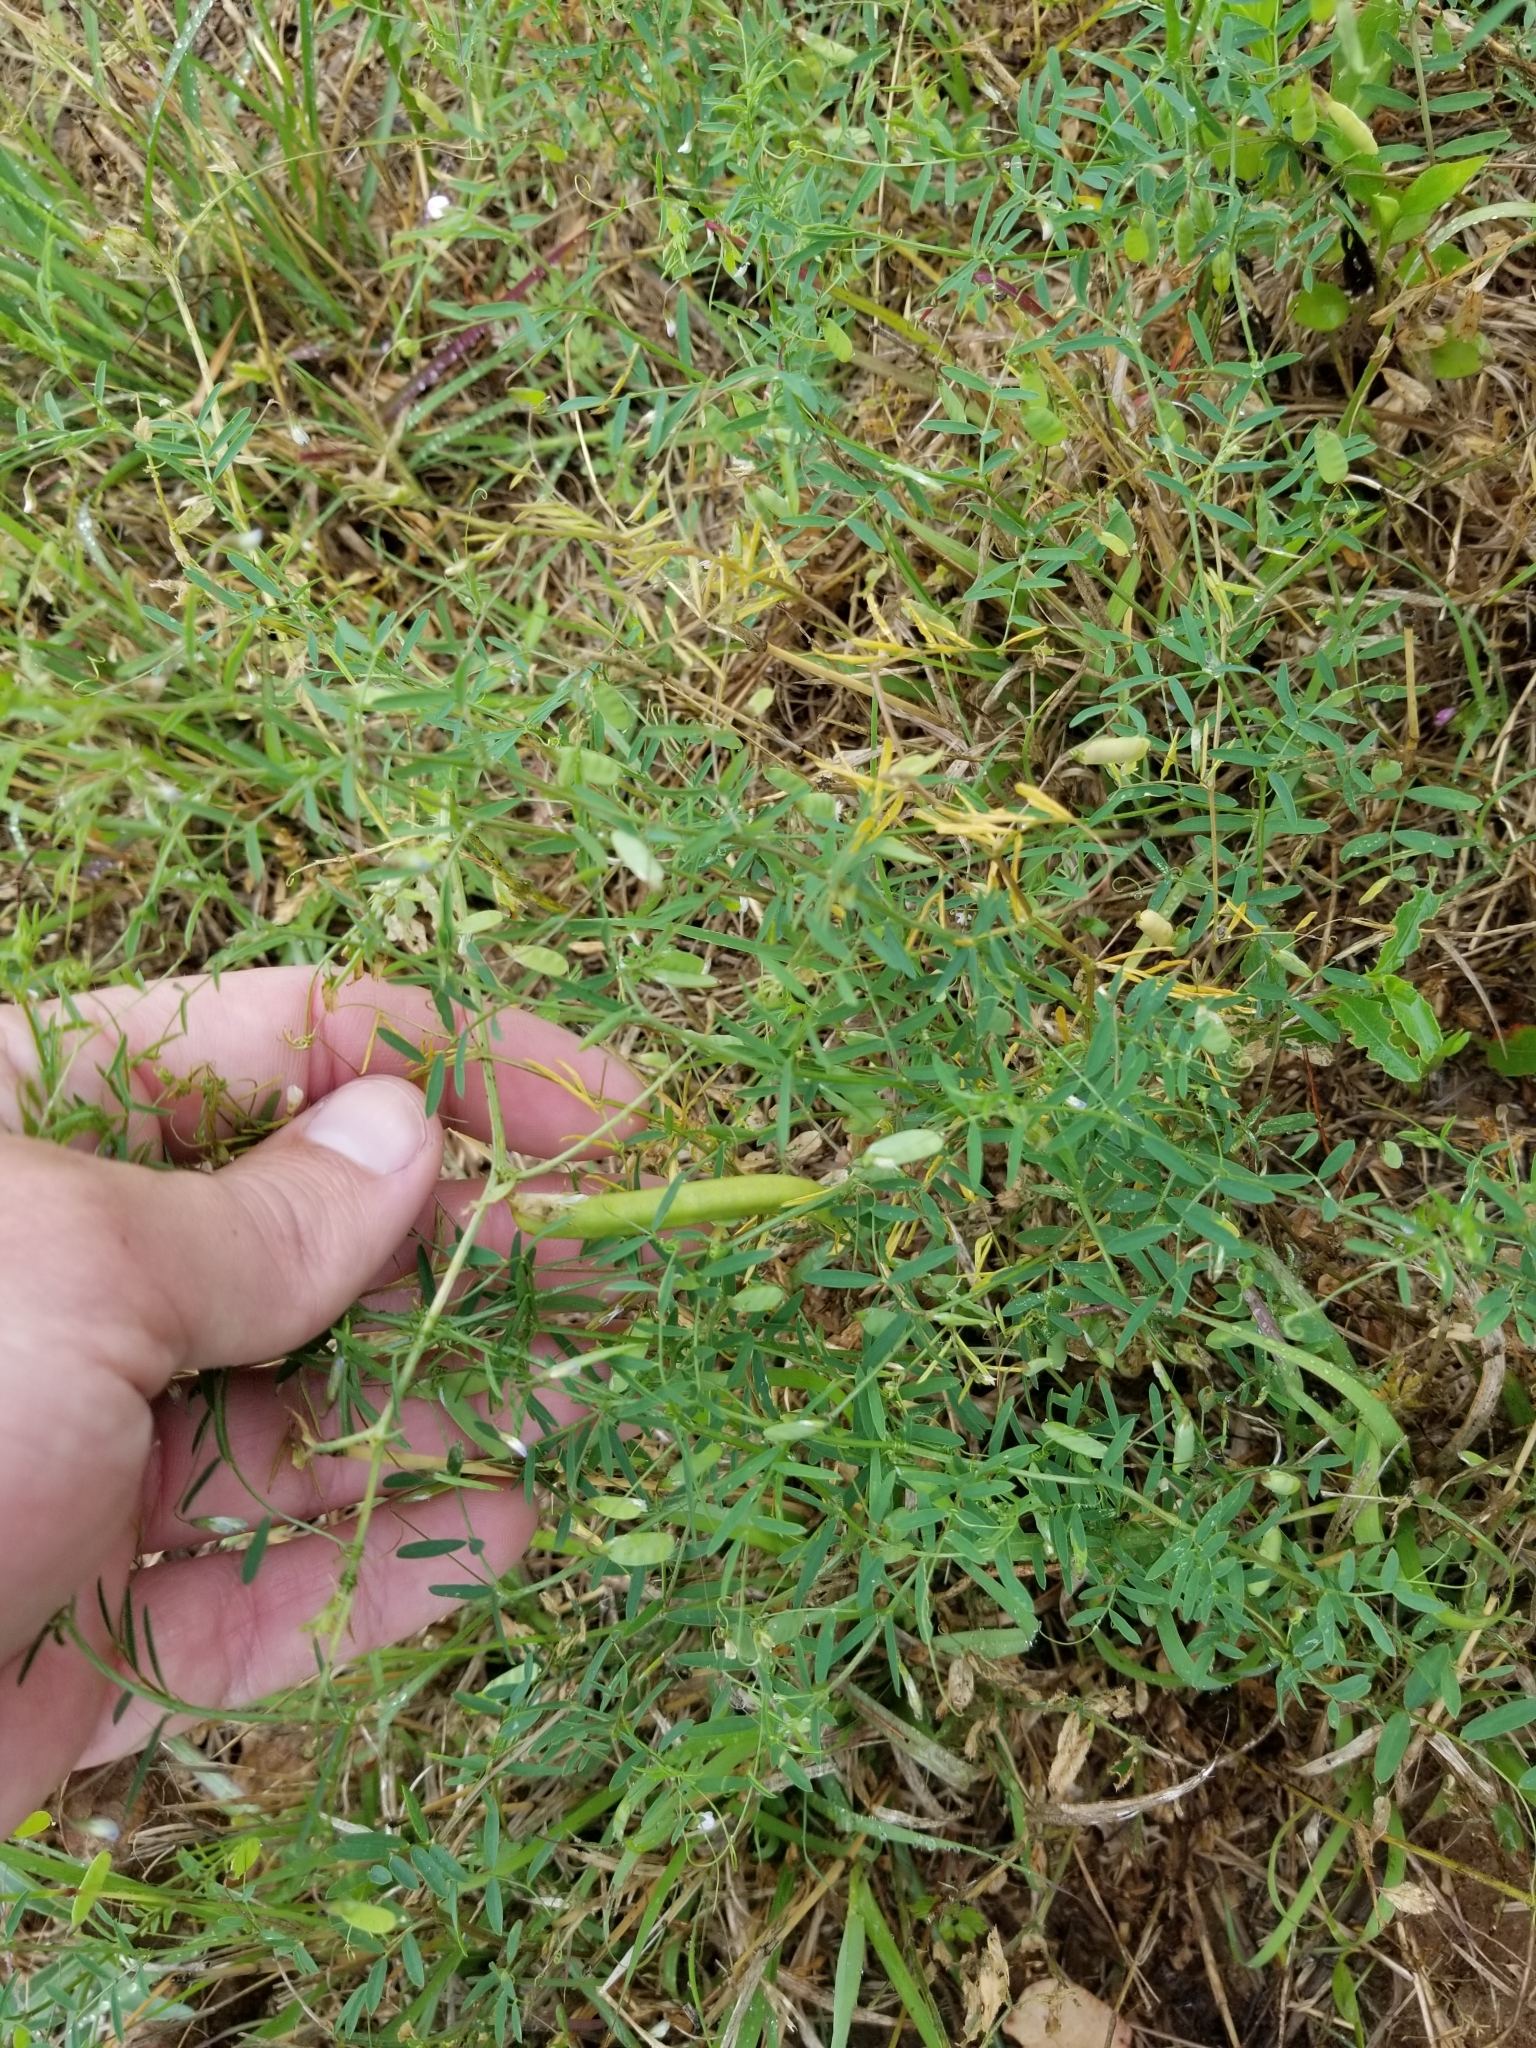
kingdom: Plantae
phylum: Tracheophyta
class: Magnoliopsida
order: Fabales
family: Fabaceae
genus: Vicia
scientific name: Vicia tetrasperma
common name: Smooth tare
